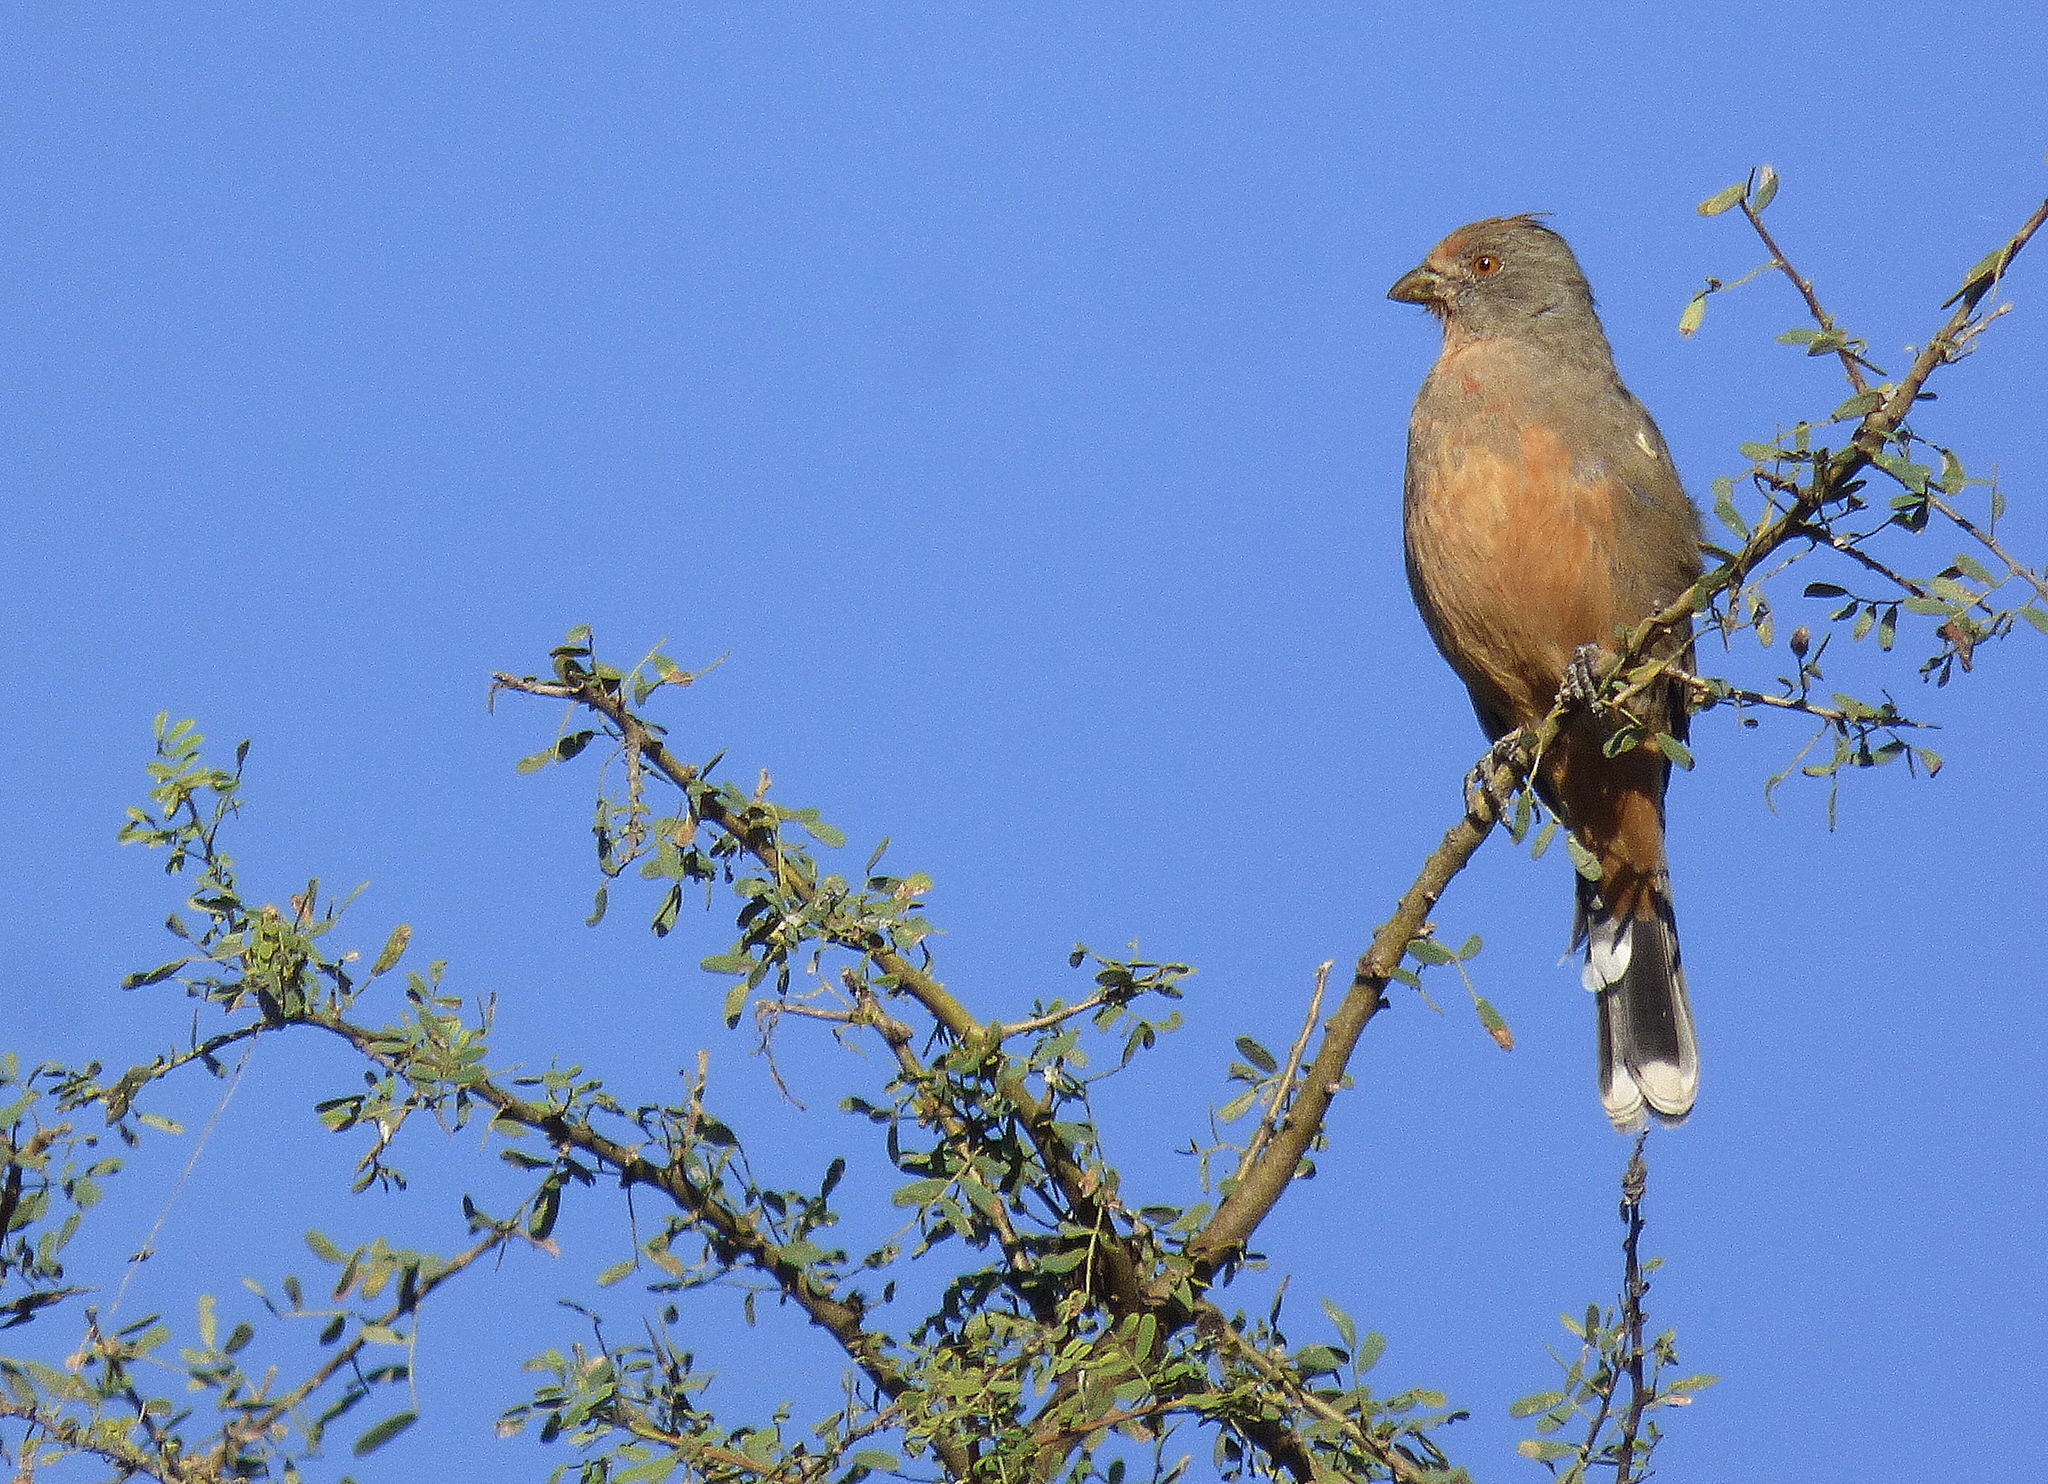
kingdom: Animalia
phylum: Chordata
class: Aves
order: Passeriformes
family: Cotingidae
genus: Phytotoma
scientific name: Phytotoma rutila
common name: White-tipped plantcutter
